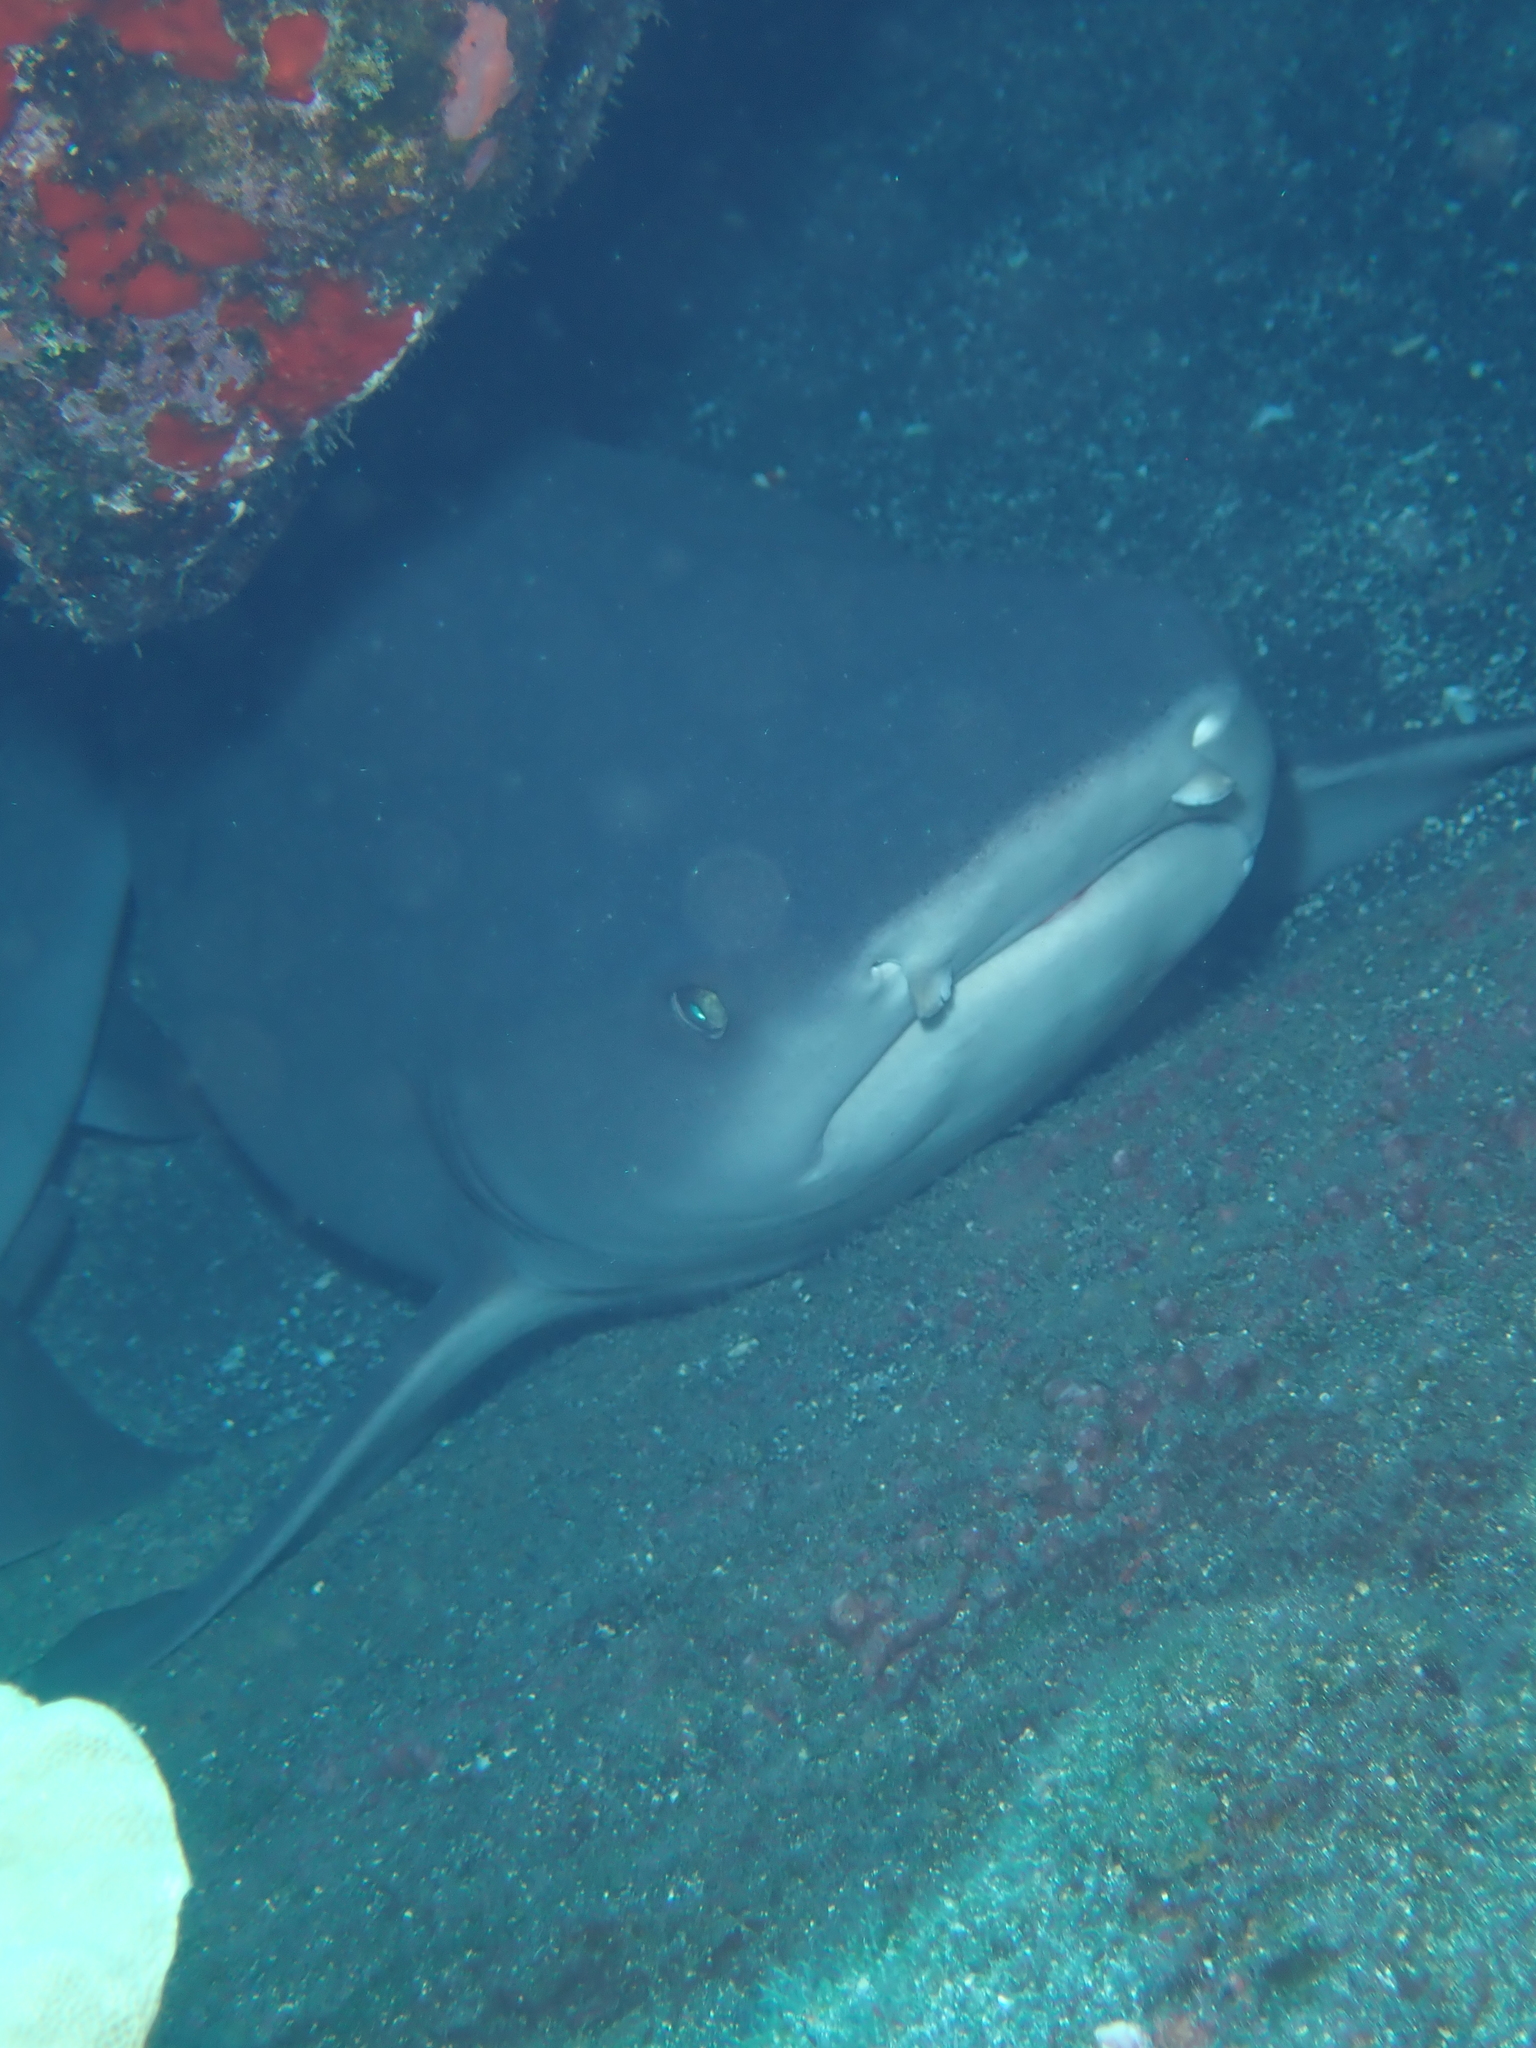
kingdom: Animalia
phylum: Chordata
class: Elasmobranchii
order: Carcharhiniformes
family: Carcharhinidae
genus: Triaenodon
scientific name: Triaenodon obesus
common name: Whitetip reef shark
